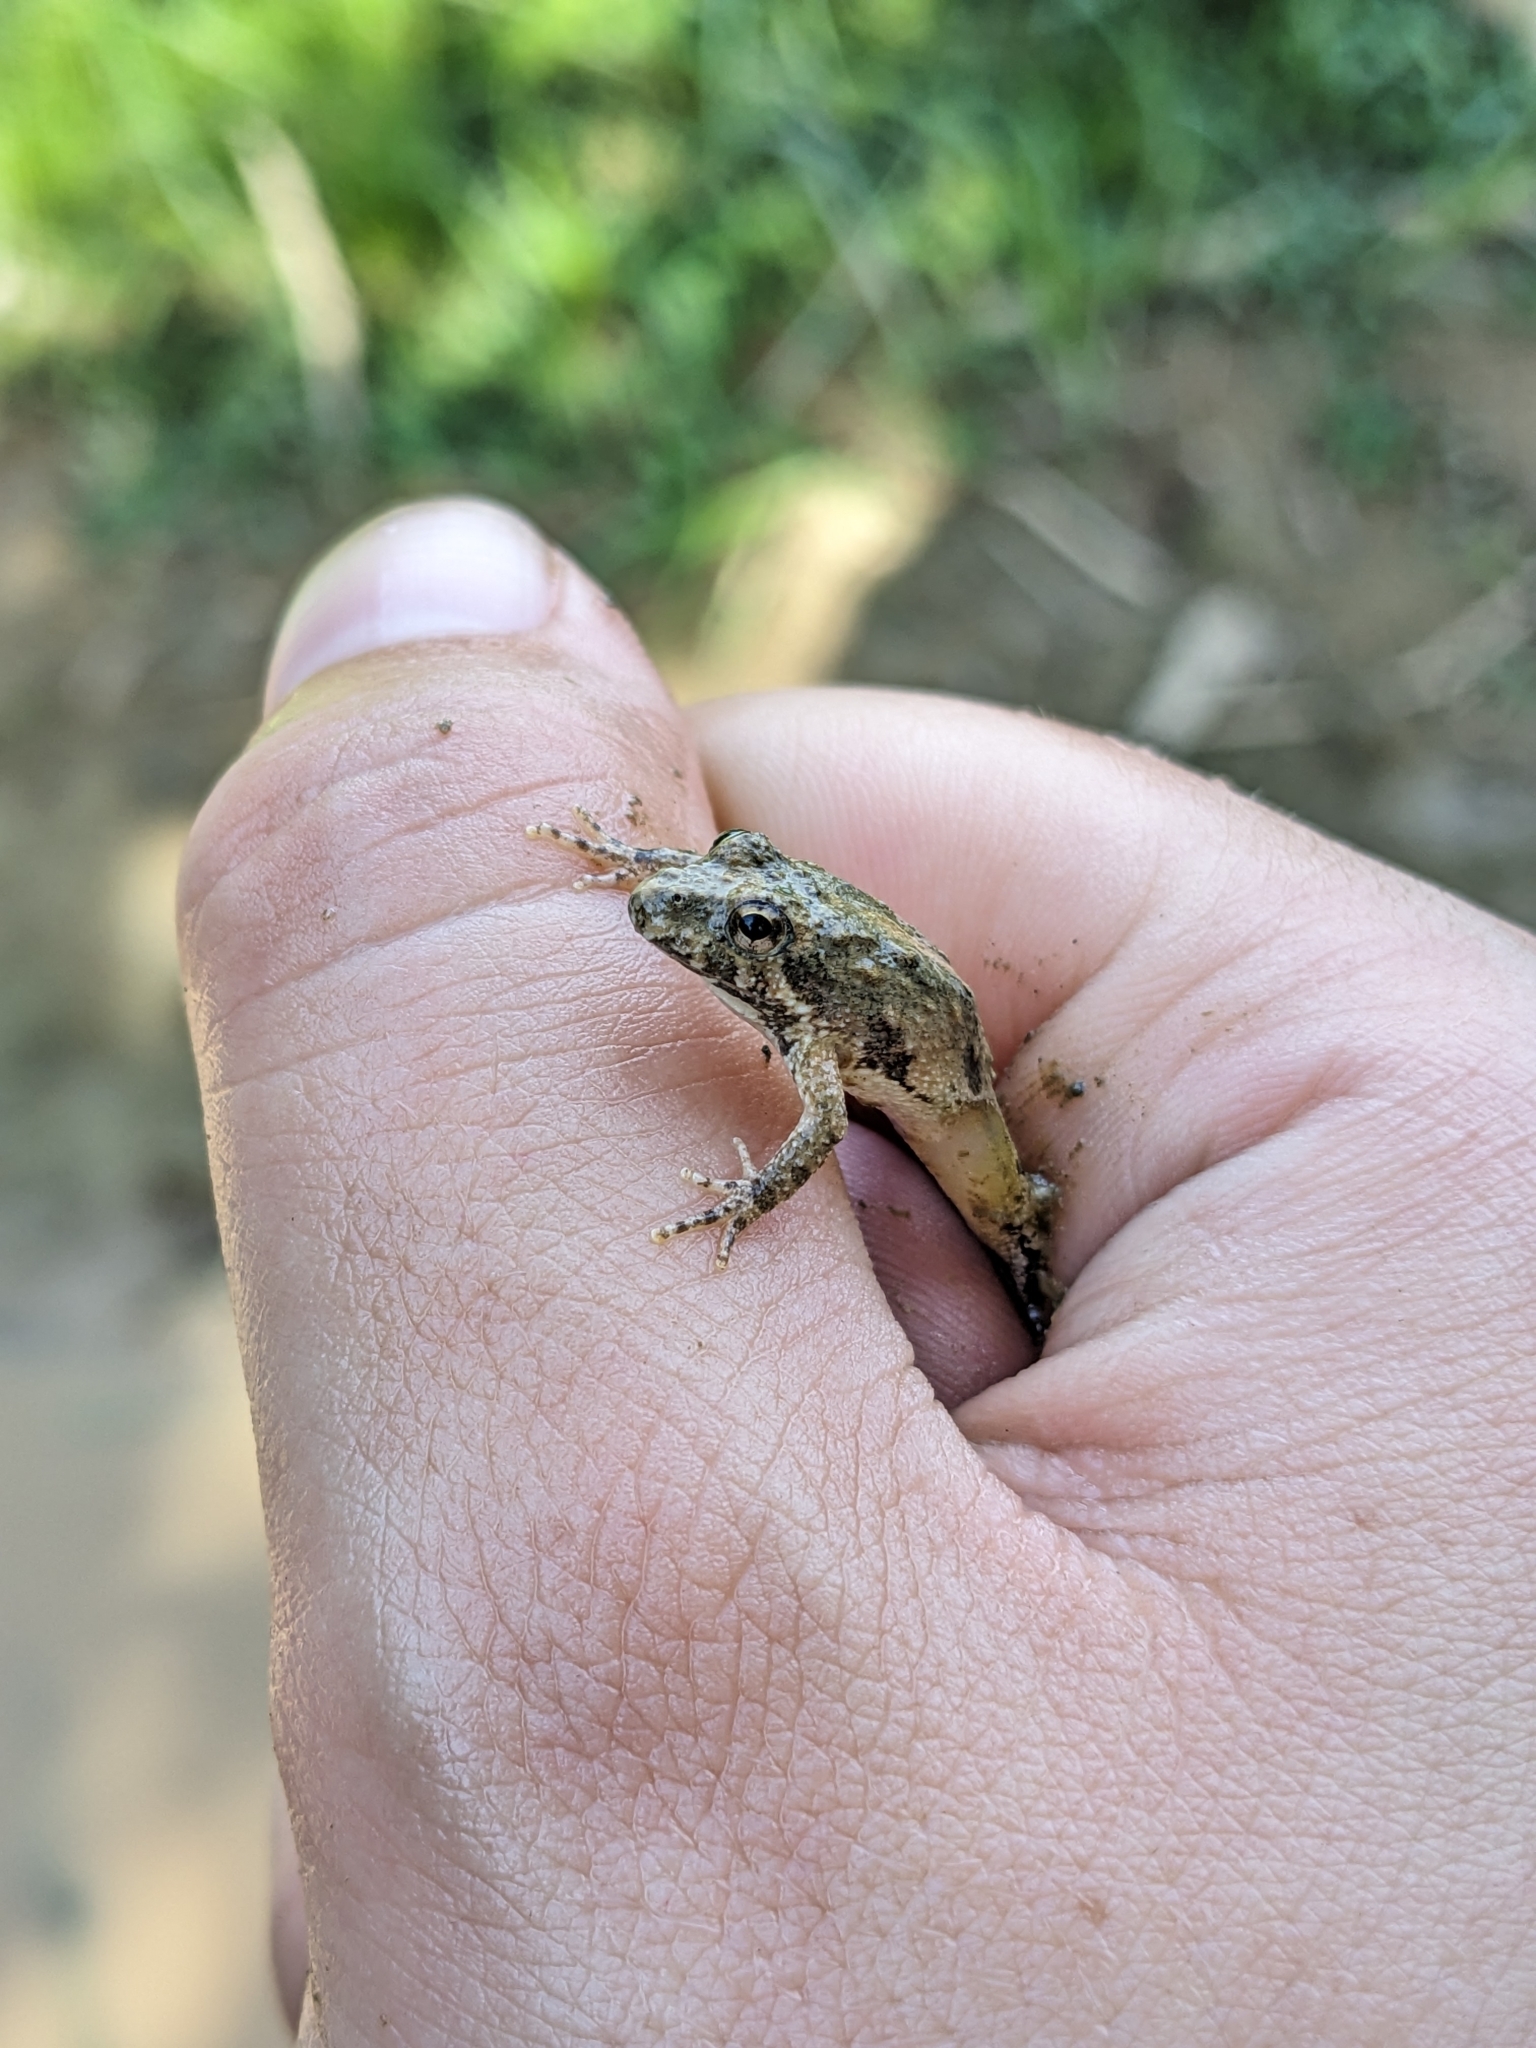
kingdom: Animalia
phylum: Chordata
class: Amphibia
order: Anura
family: Hylidae
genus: Acris
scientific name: Acris crepitans
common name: Northern cricket frog
